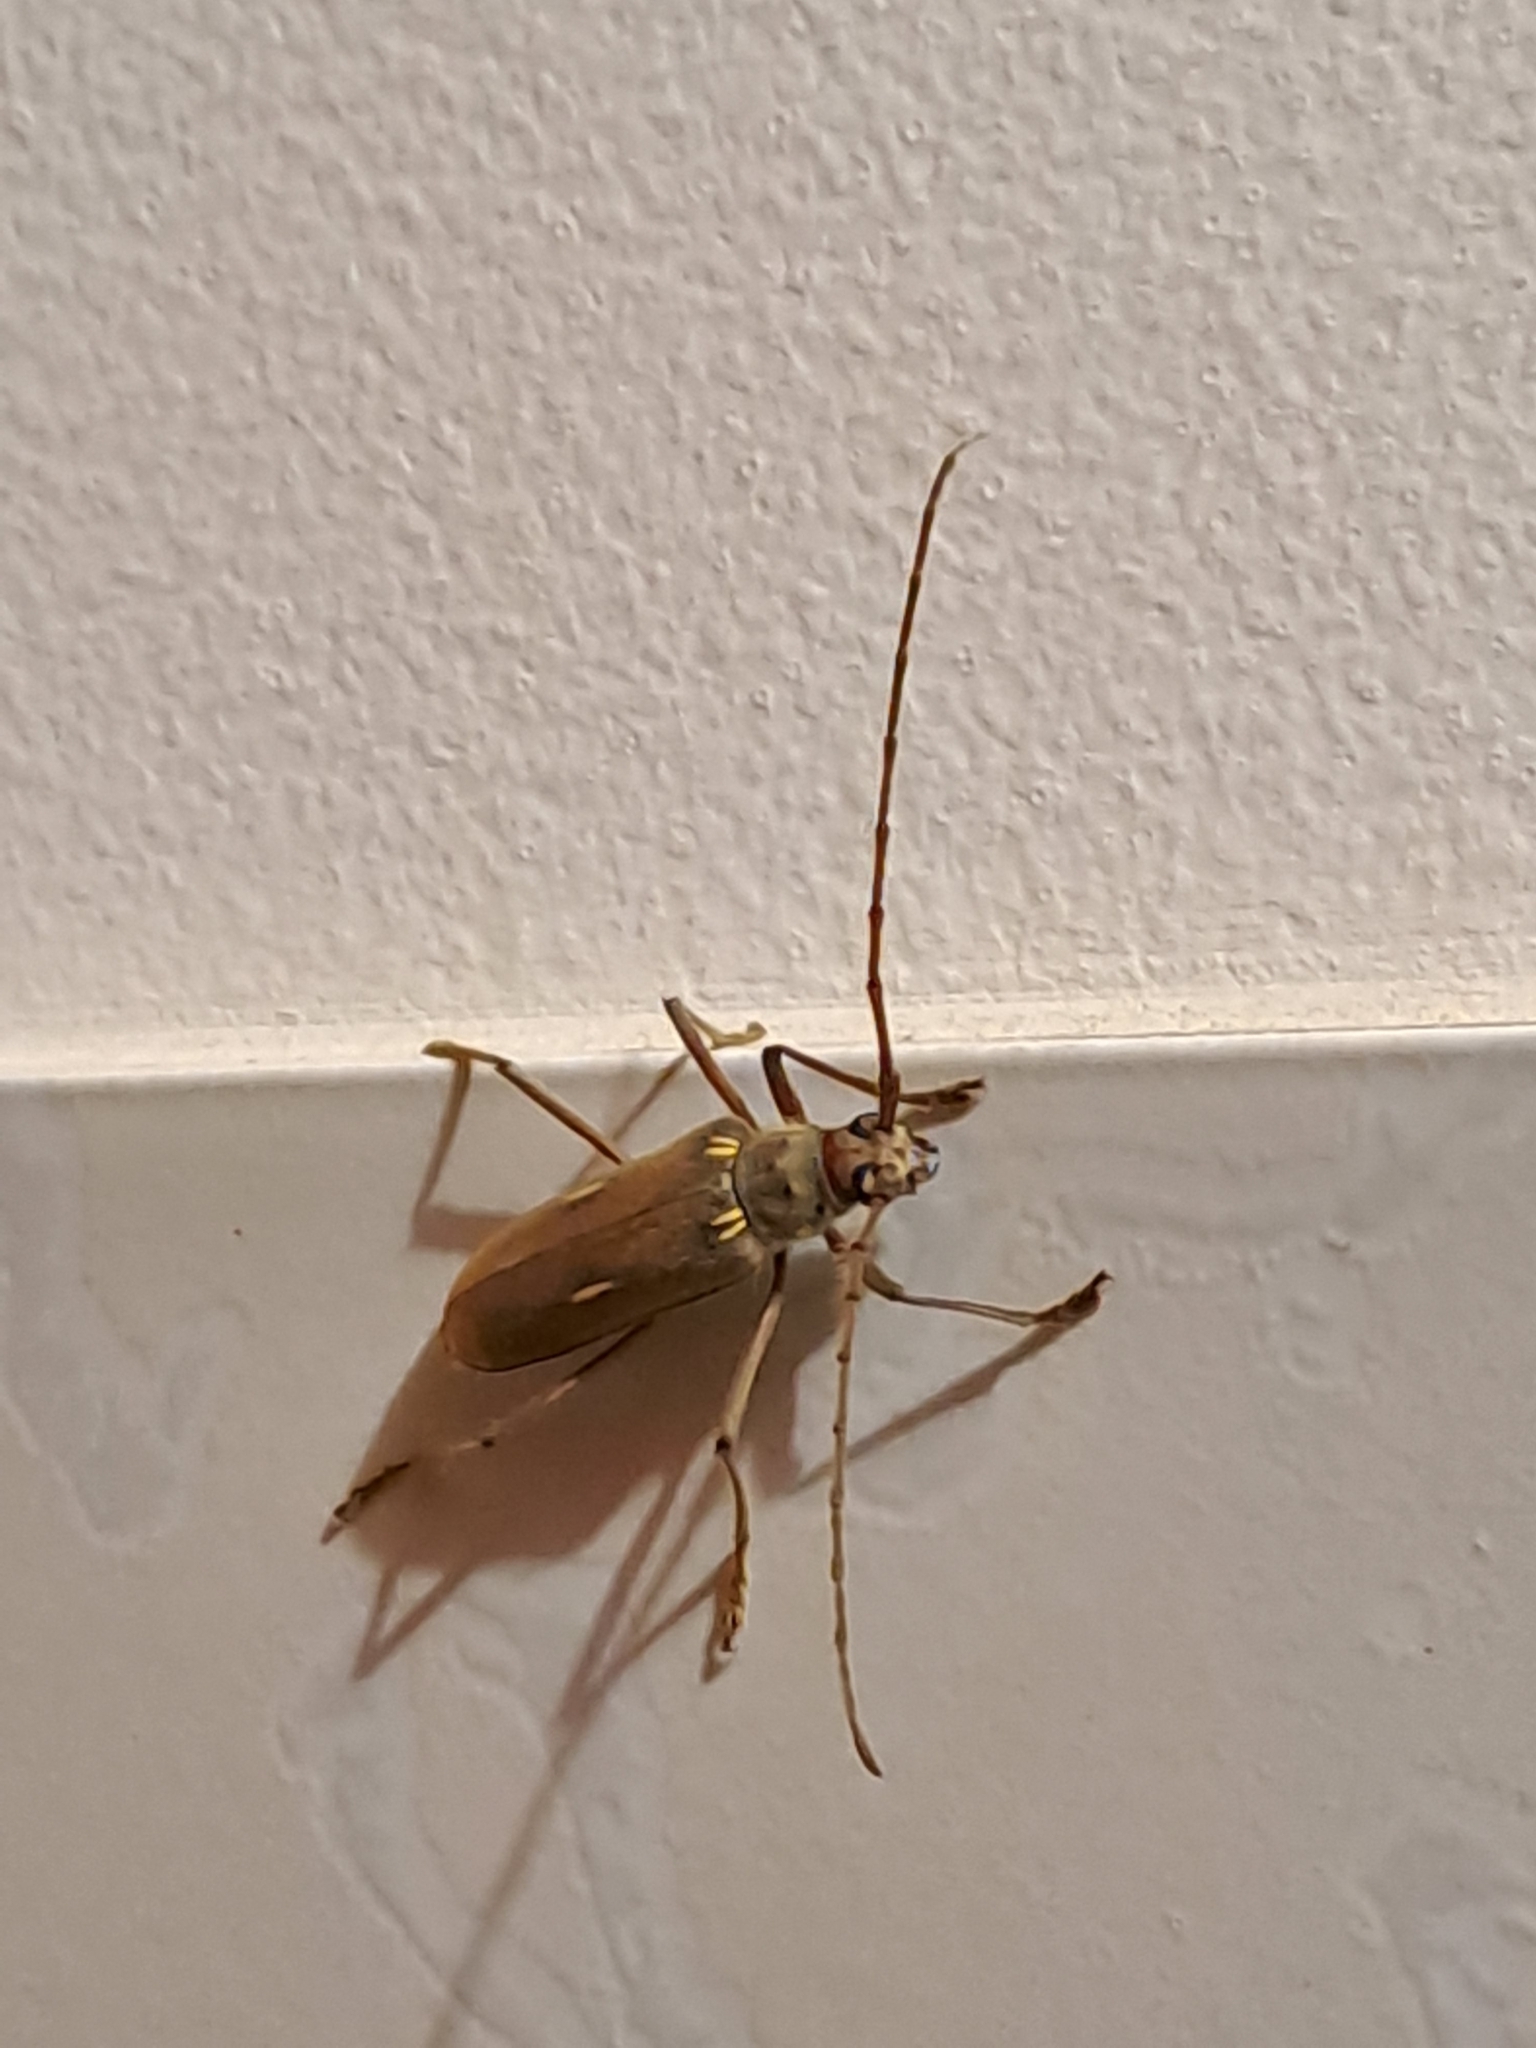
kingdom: Animalia
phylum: Arthropoda
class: Insecta
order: Coleoptera
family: Cerambycidae
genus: Eburia
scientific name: Eburia pilosa
